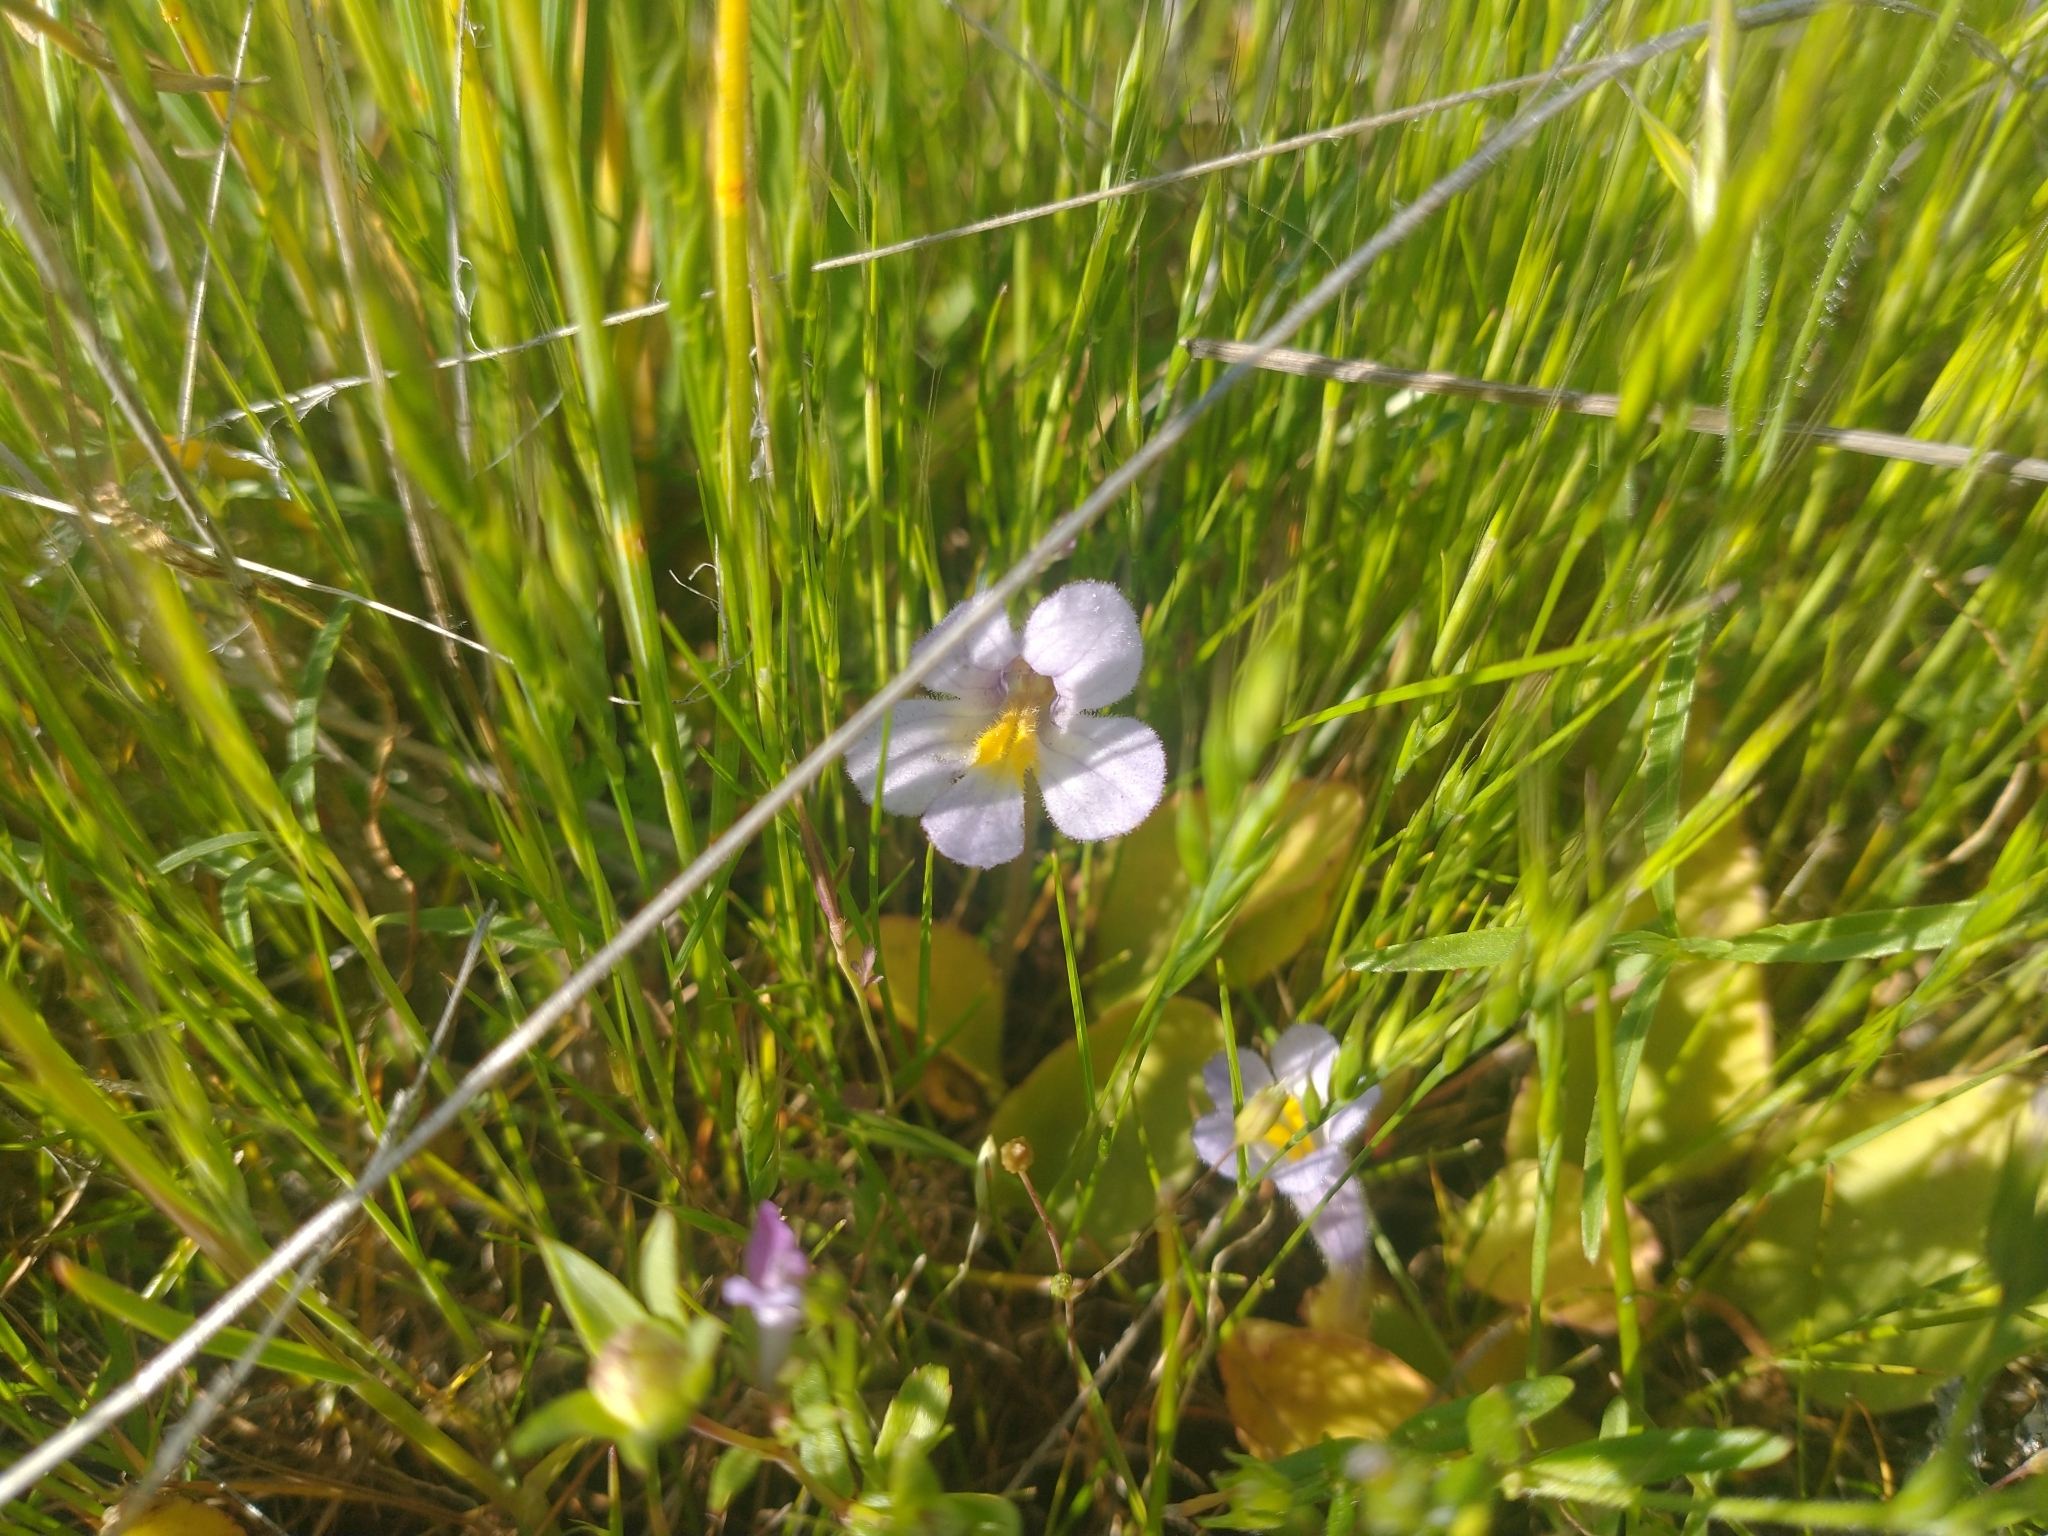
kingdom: Plantae
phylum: Tracheophyta
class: Magnoliopsida
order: Lamiales
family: Orobanchaceae
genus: Aphyllon
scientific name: Aphyllon uniflorum
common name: One-flowered broomrape
